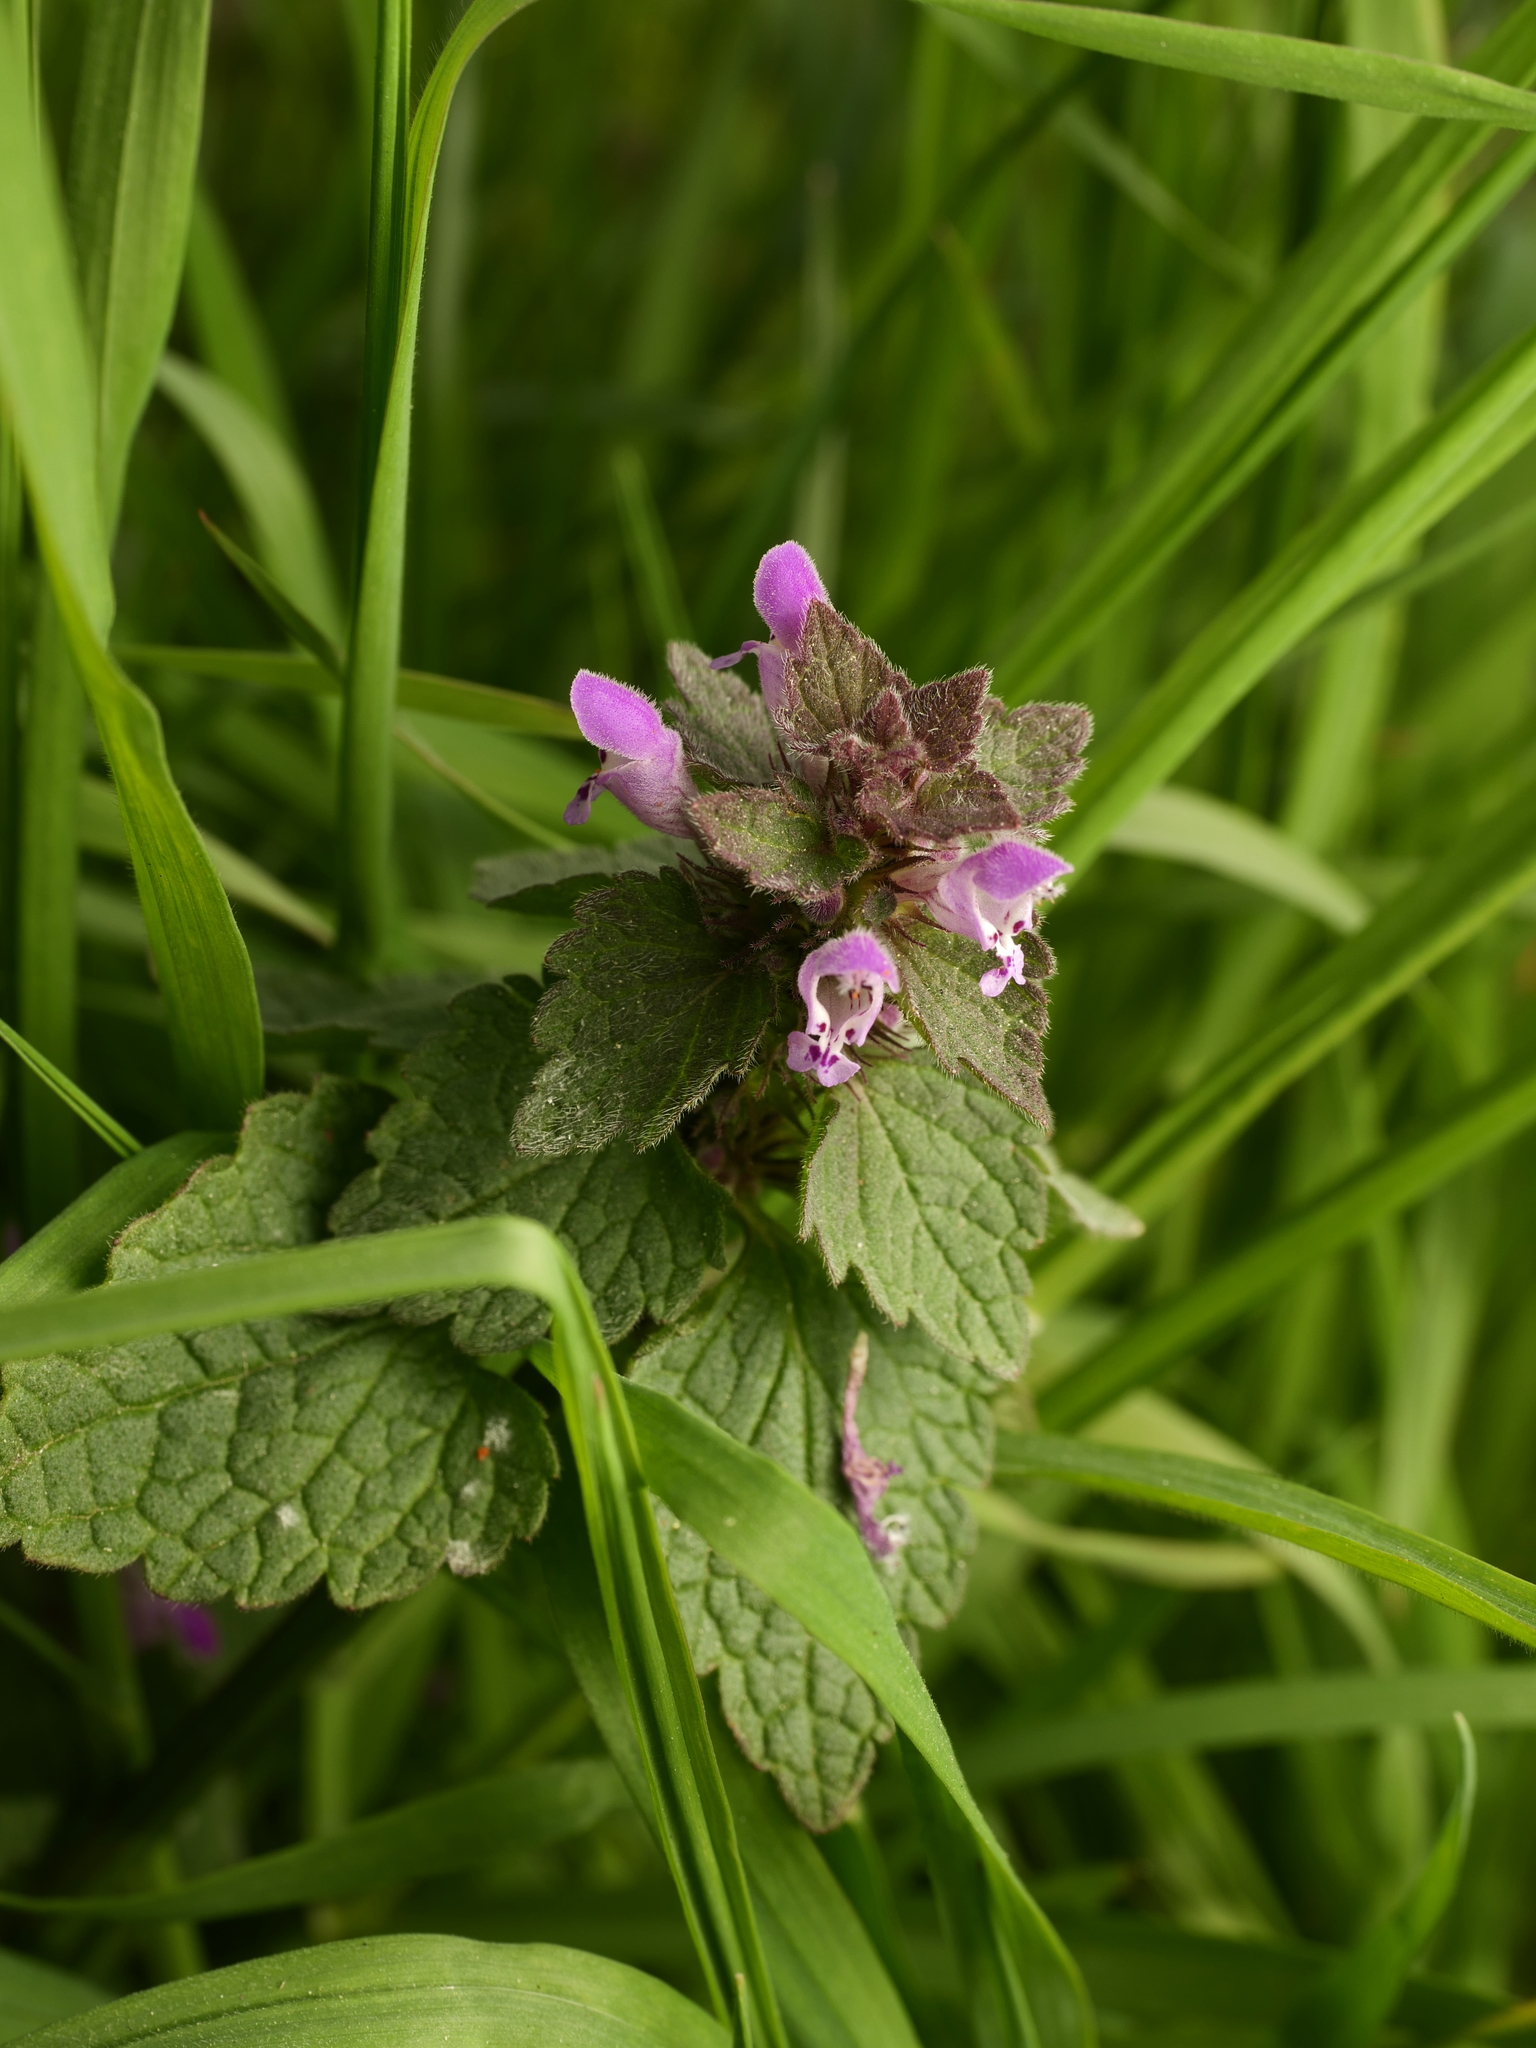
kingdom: Plantae
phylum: Tracheophyta
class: Magnoliopsida
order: Lamiales
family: Lamiaceae
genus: Lamium
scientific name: Lamium purpureum
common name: Red dead-nettle
